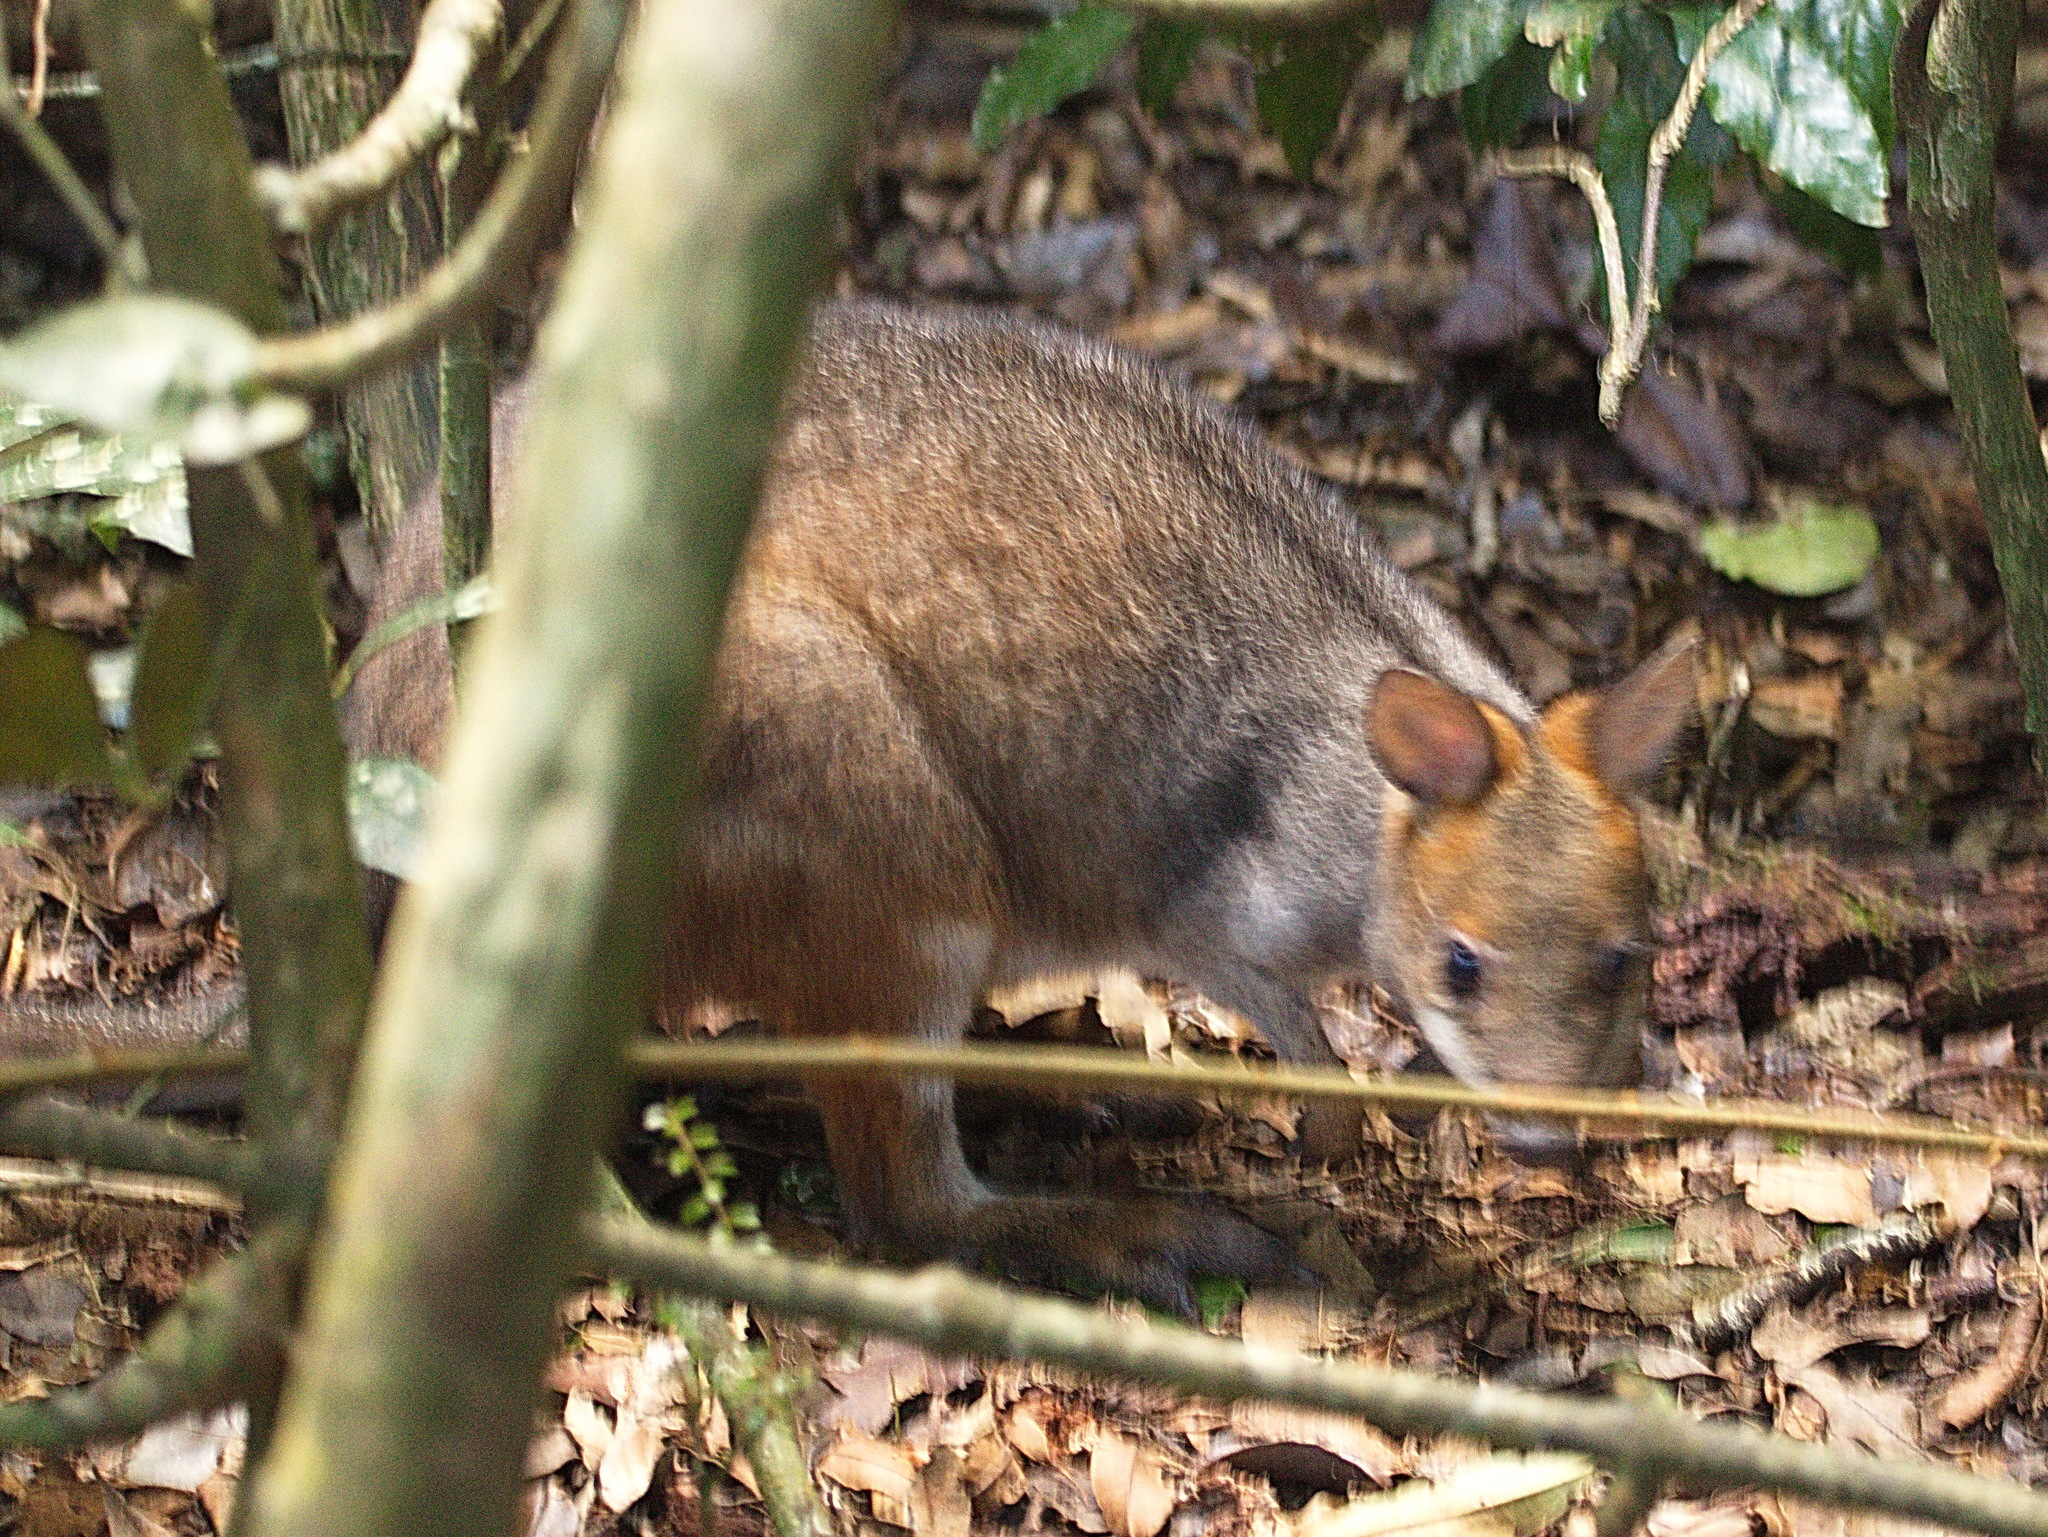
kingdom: Animalia
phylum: Chordata
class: Mammalia
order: Diprotodontia
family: Macropodidae
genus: Thylogale
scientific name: Thylogale stigmatica
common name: Red-legged pademelon
